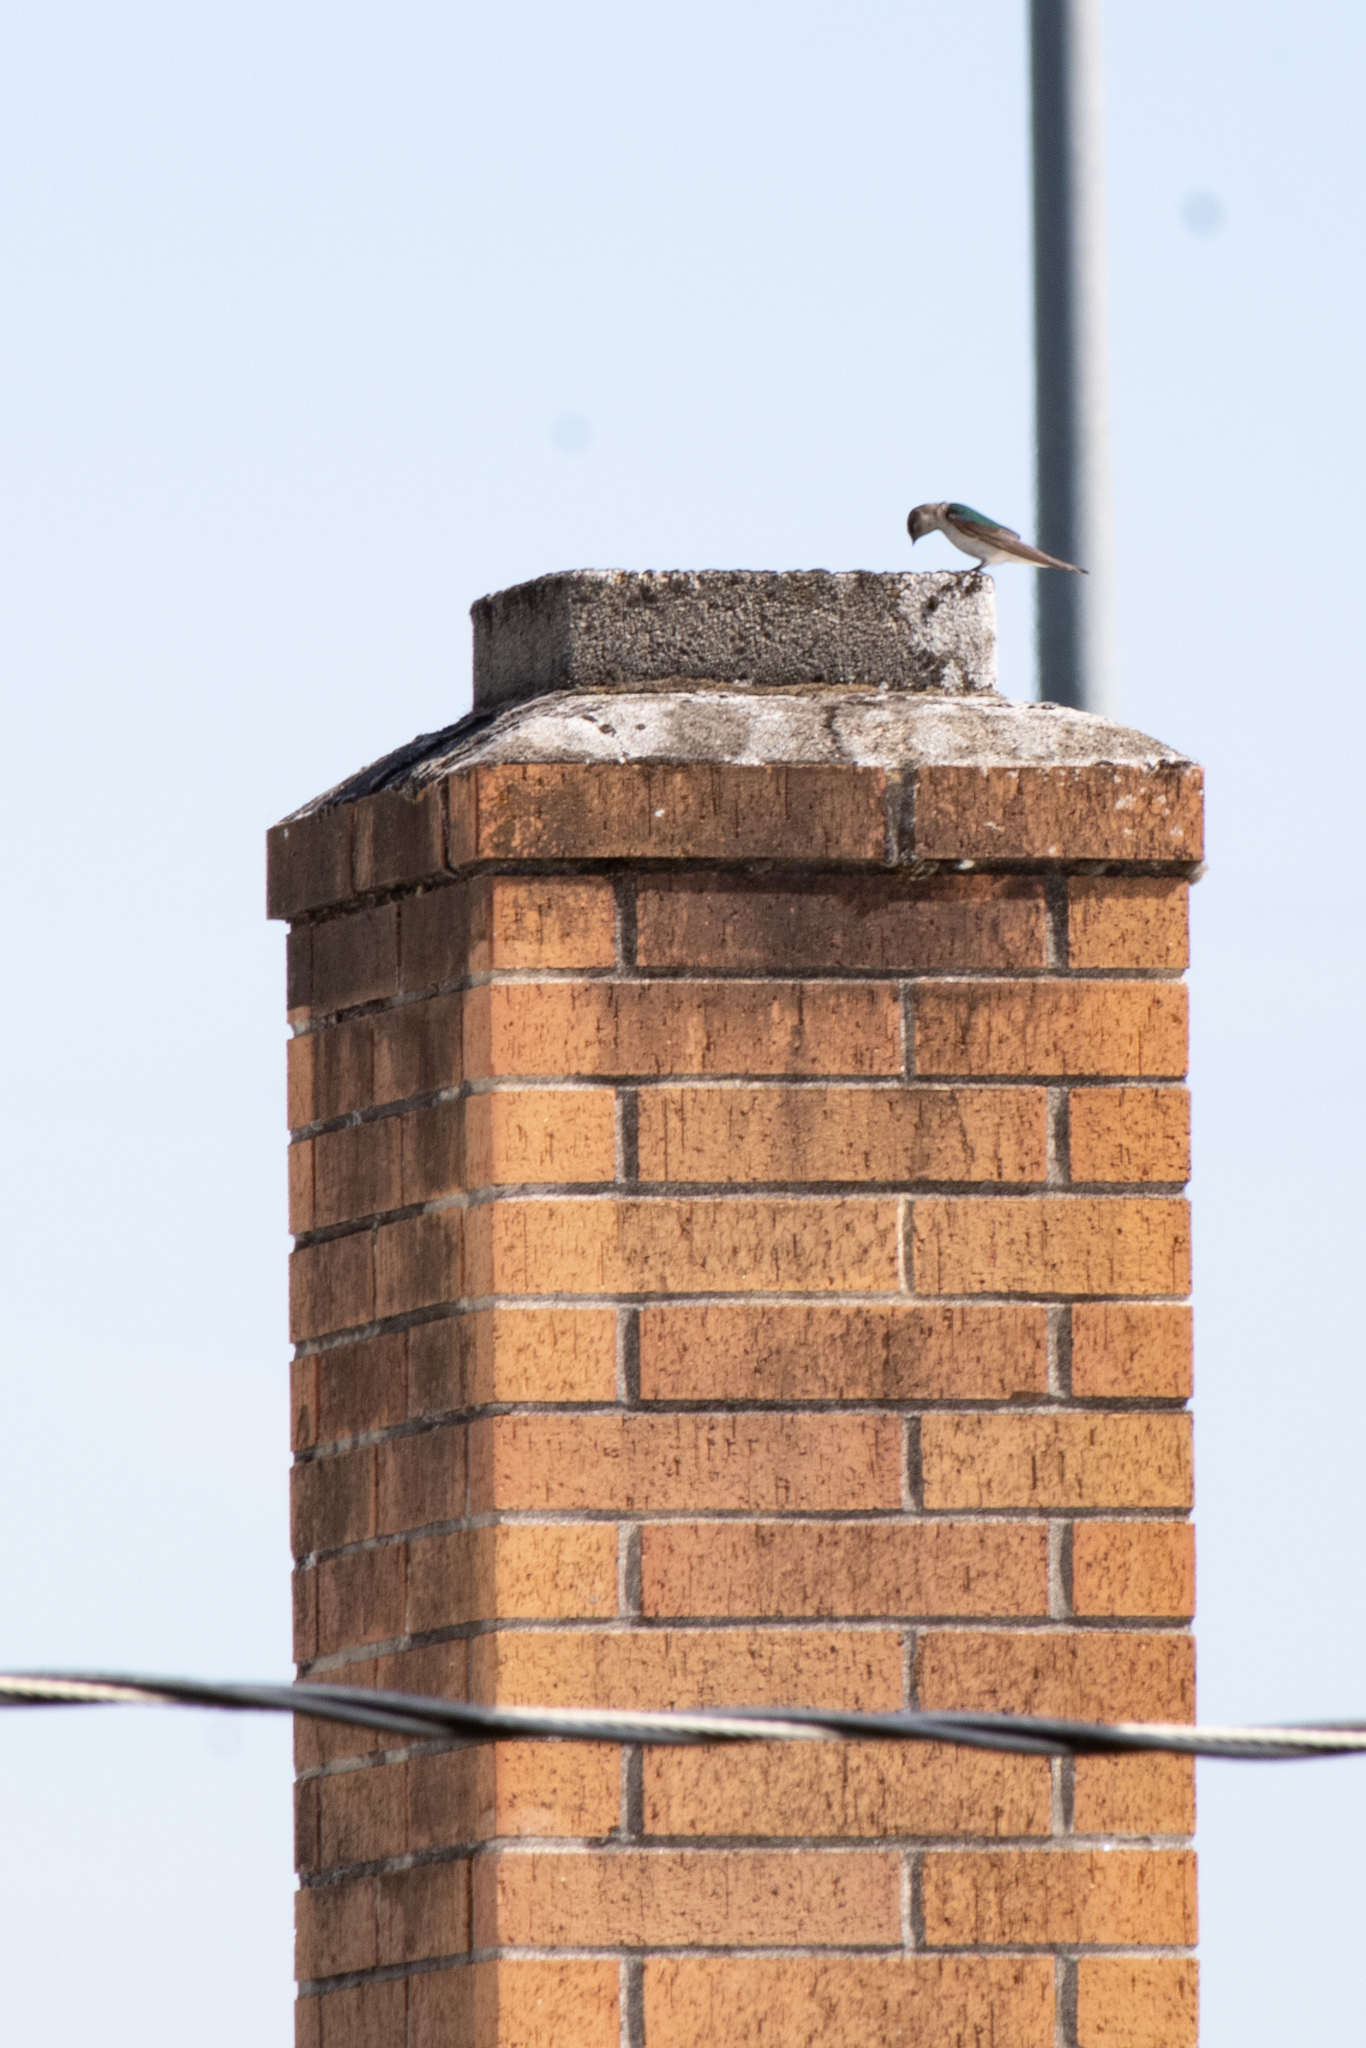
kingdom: Animalia
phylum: Chordata
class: Aves
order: Passeriformes
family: Hirundinidae
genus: Tachycineta
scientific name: Tachycineta thalassina
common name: Violet-green swallow
